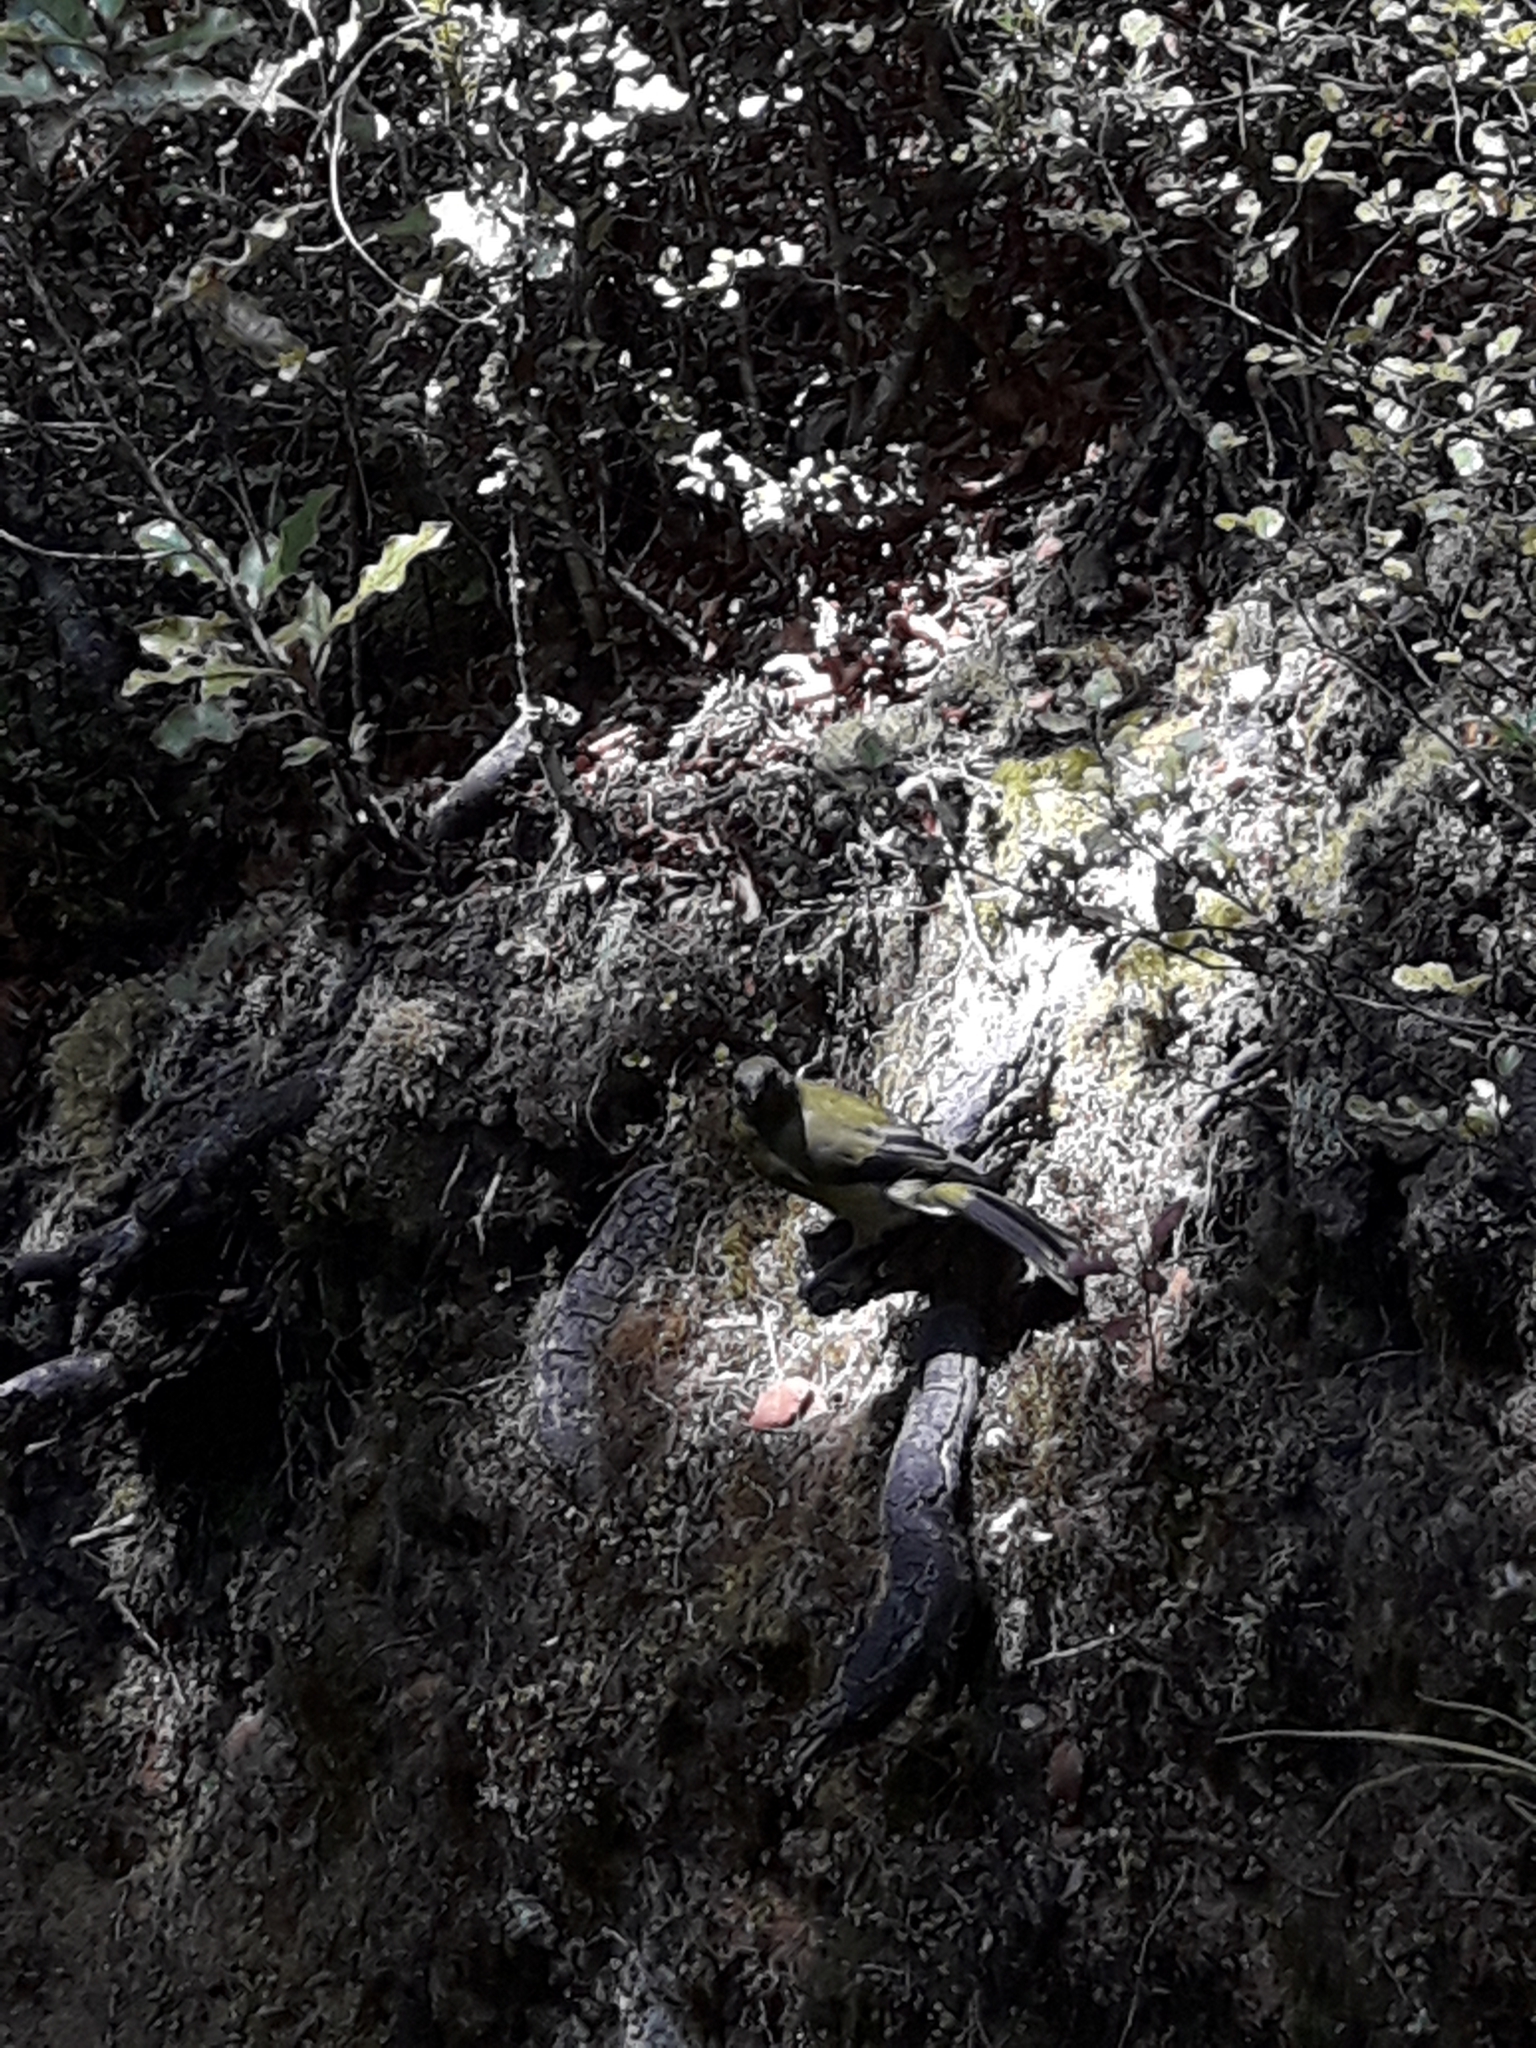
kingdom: Animalia
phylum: Chordata
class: Aves
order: Passeriformes
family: Meliphagidae
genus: Anthornis
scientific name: Anthornis melanura
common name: New zealand bellbird
